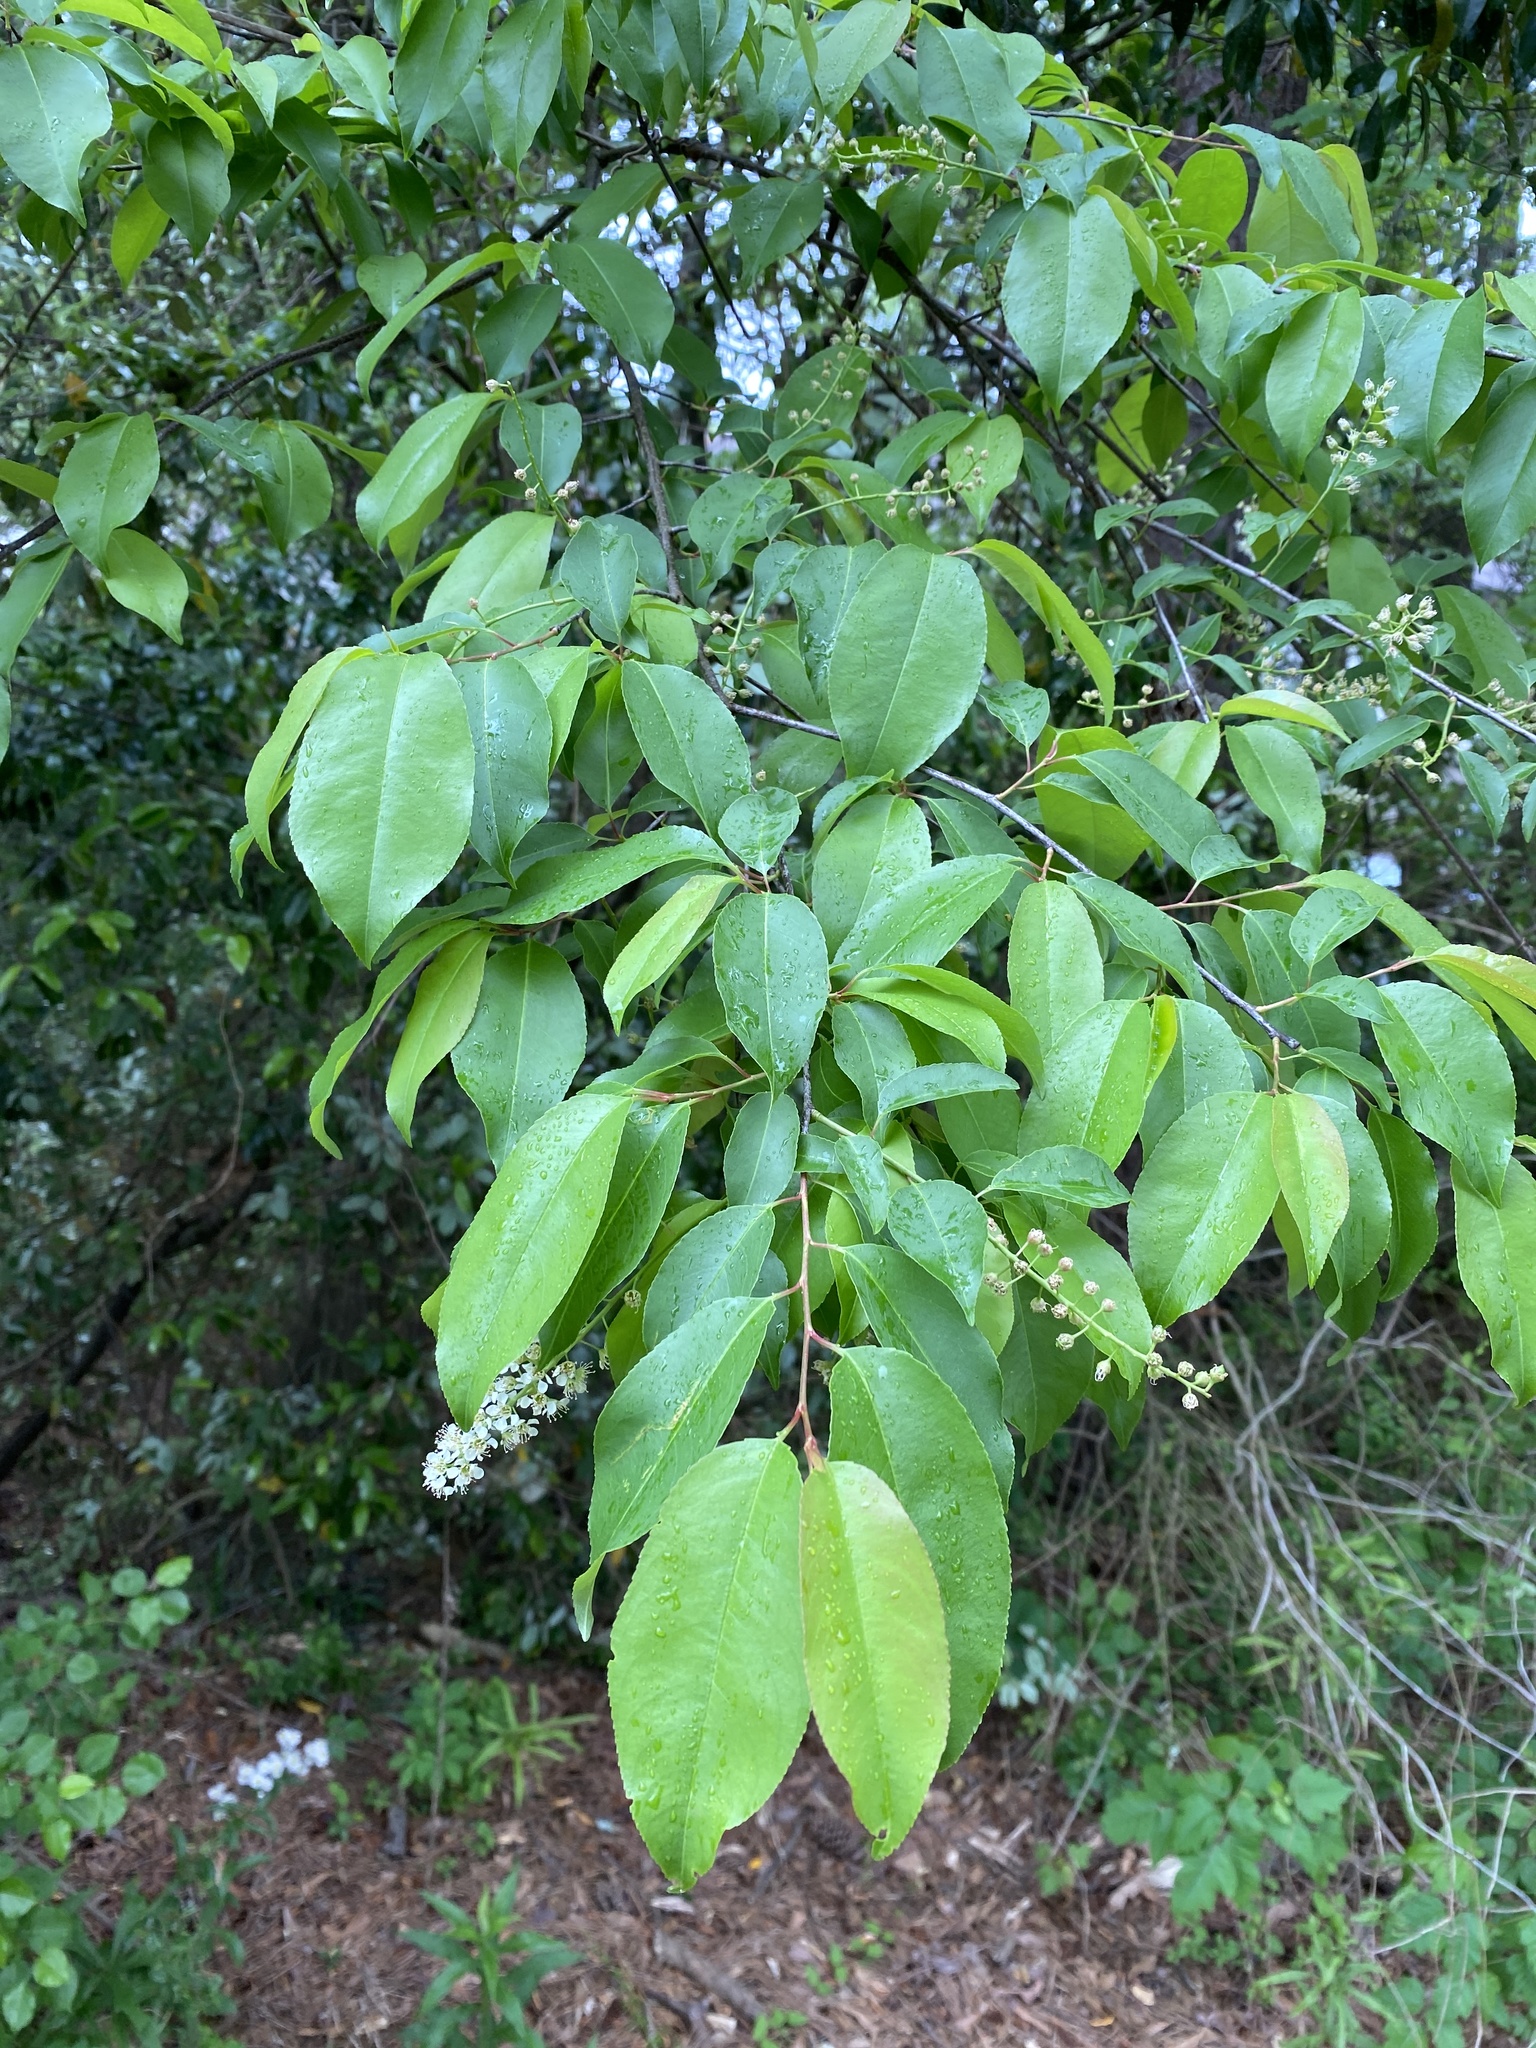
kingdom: Plantae
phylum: Tracheophyta
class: Magnoliopsida
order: Rosales
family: Rosaceae
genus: Prunus
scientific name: Prunus serotina
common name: Black cherry
